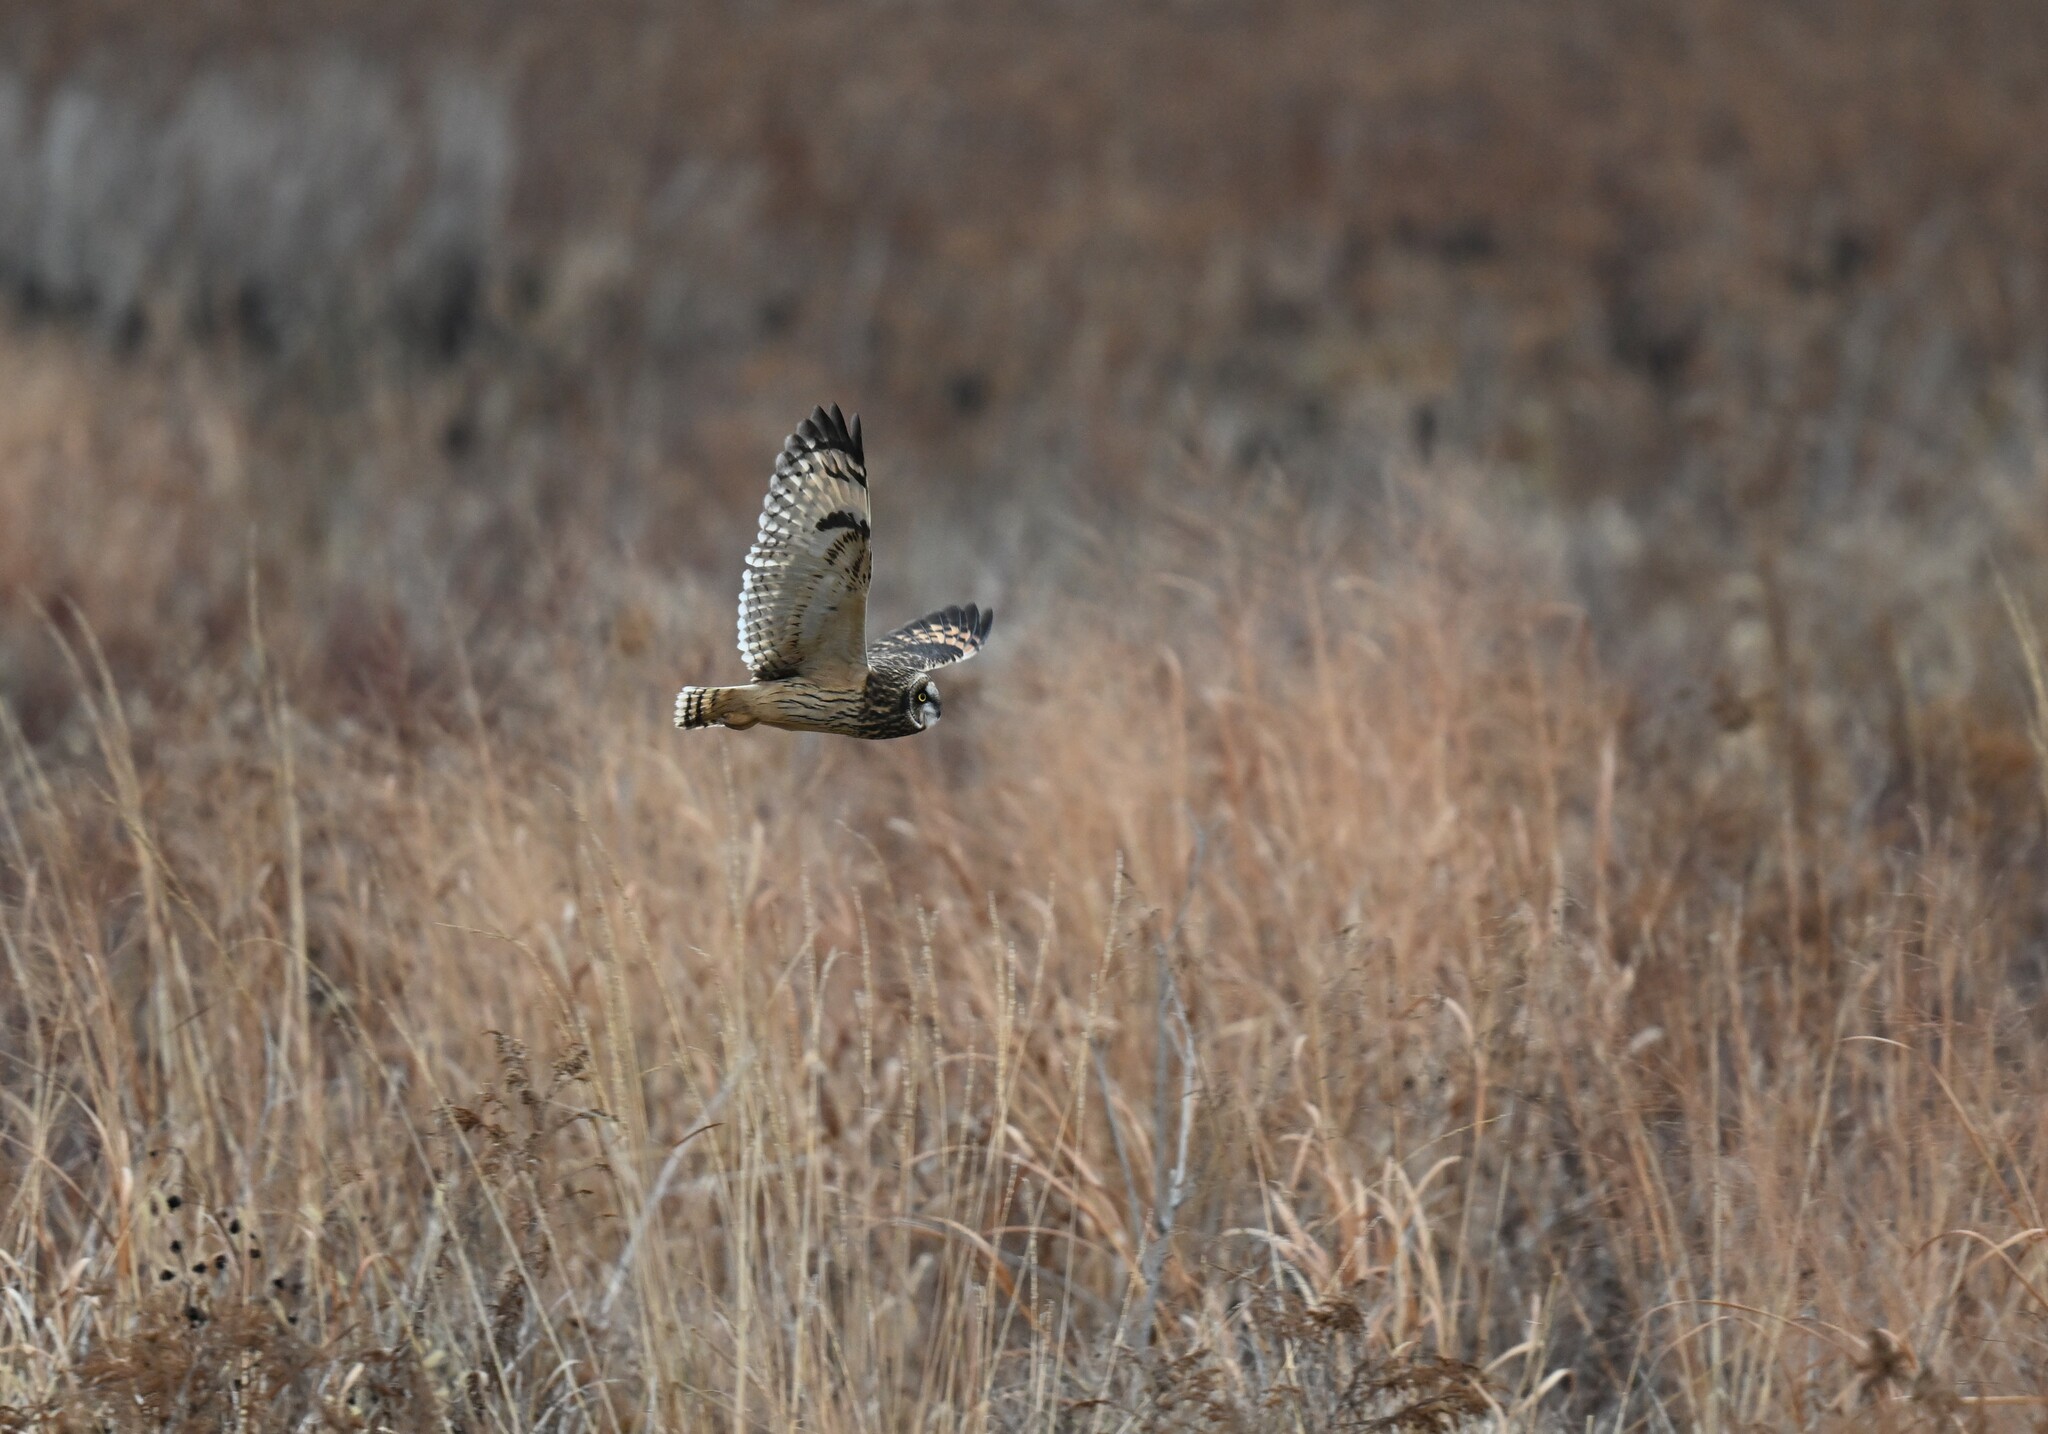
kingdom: Animalia
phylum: Chordata
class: Aves
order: Strigiformes
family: Strigidae
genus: Asio
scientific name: Asio flammeus
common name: Short-eared owl
